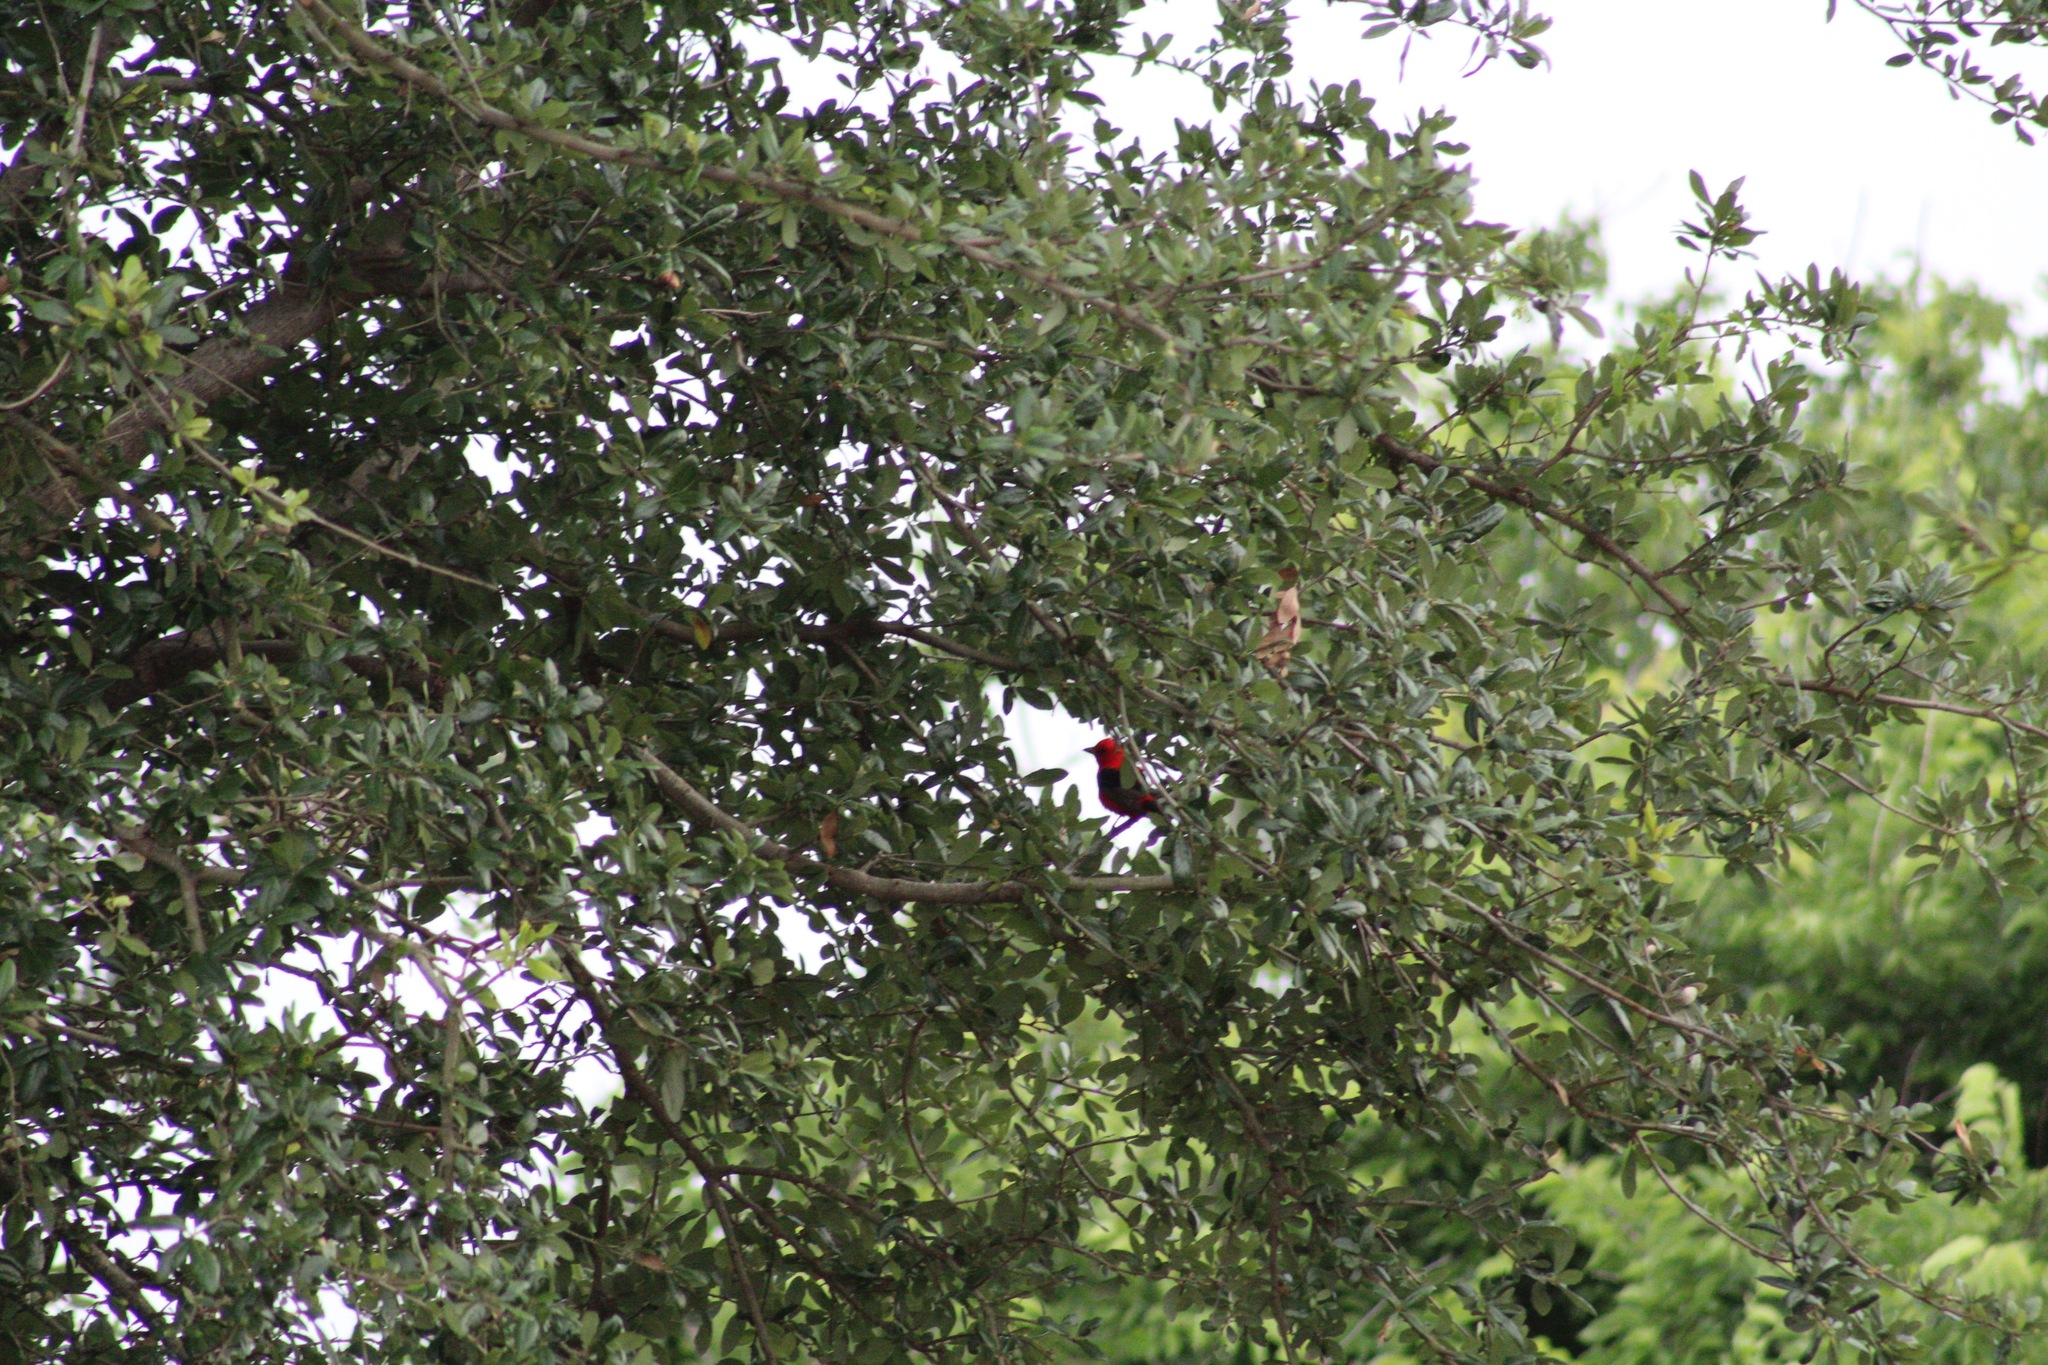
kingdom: Animalia
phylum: Chordata
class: Aves
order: Passeriformes
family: Cardinalidae
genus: Piranga
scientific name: Piranga olivacea
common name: Scarlet tanager
